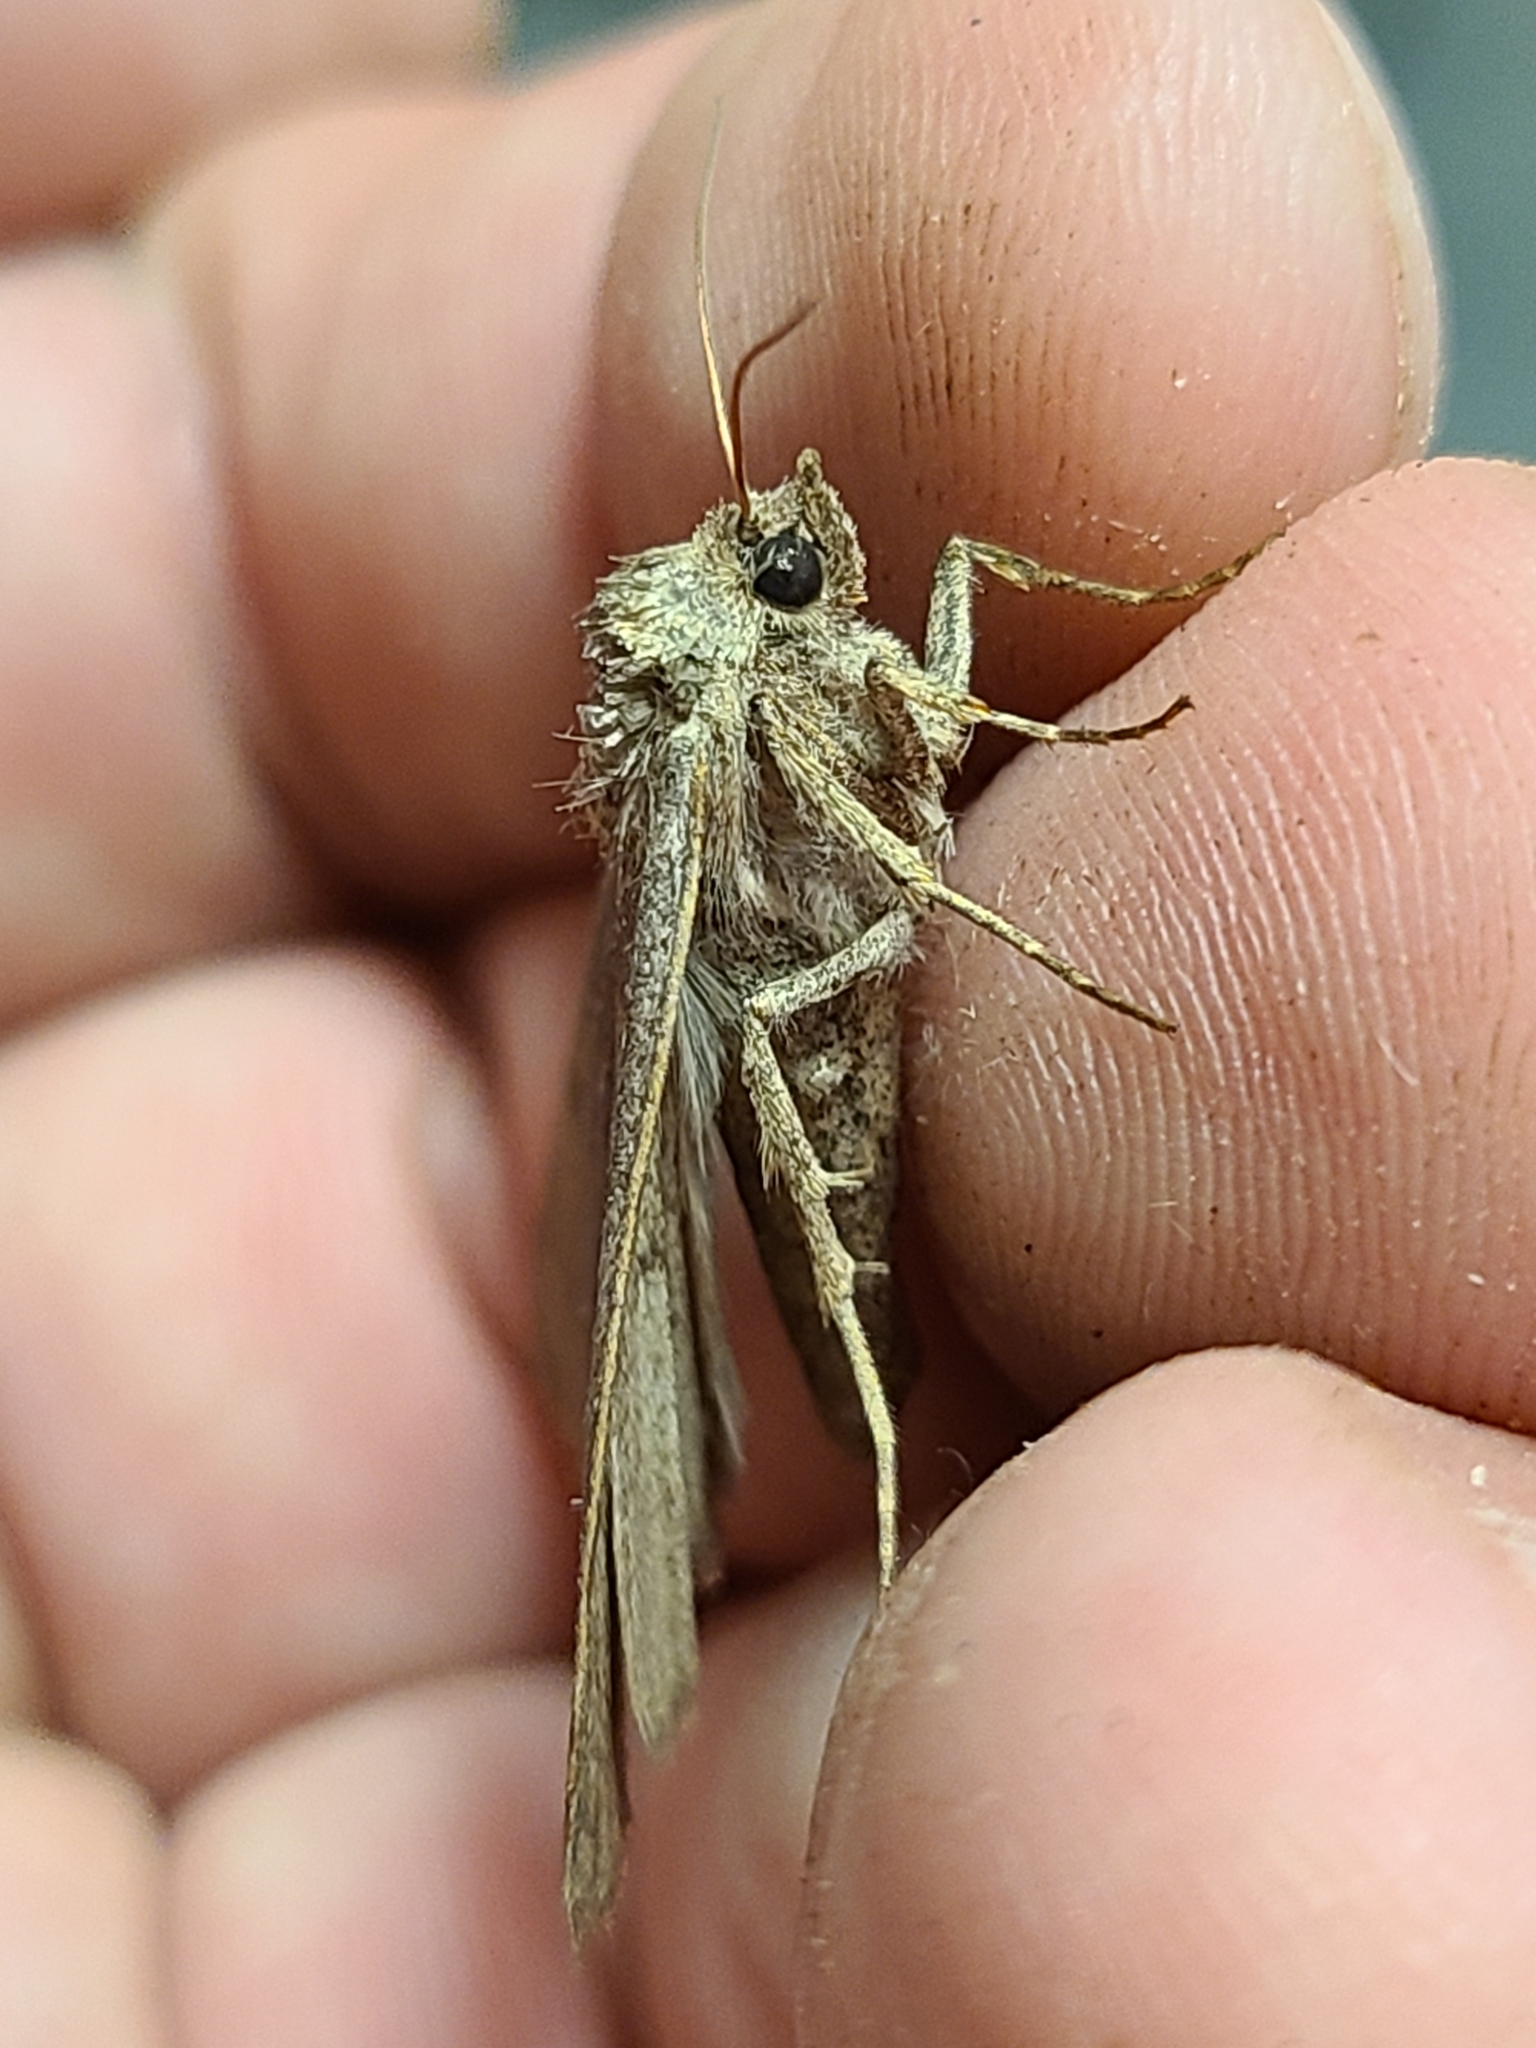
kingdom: Animalia
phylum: Arthropoda
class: Insecta
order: Lepidoptera
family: Erebidae
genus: Phoberia
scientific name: Phoberia atomaris
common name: Common oak moth
